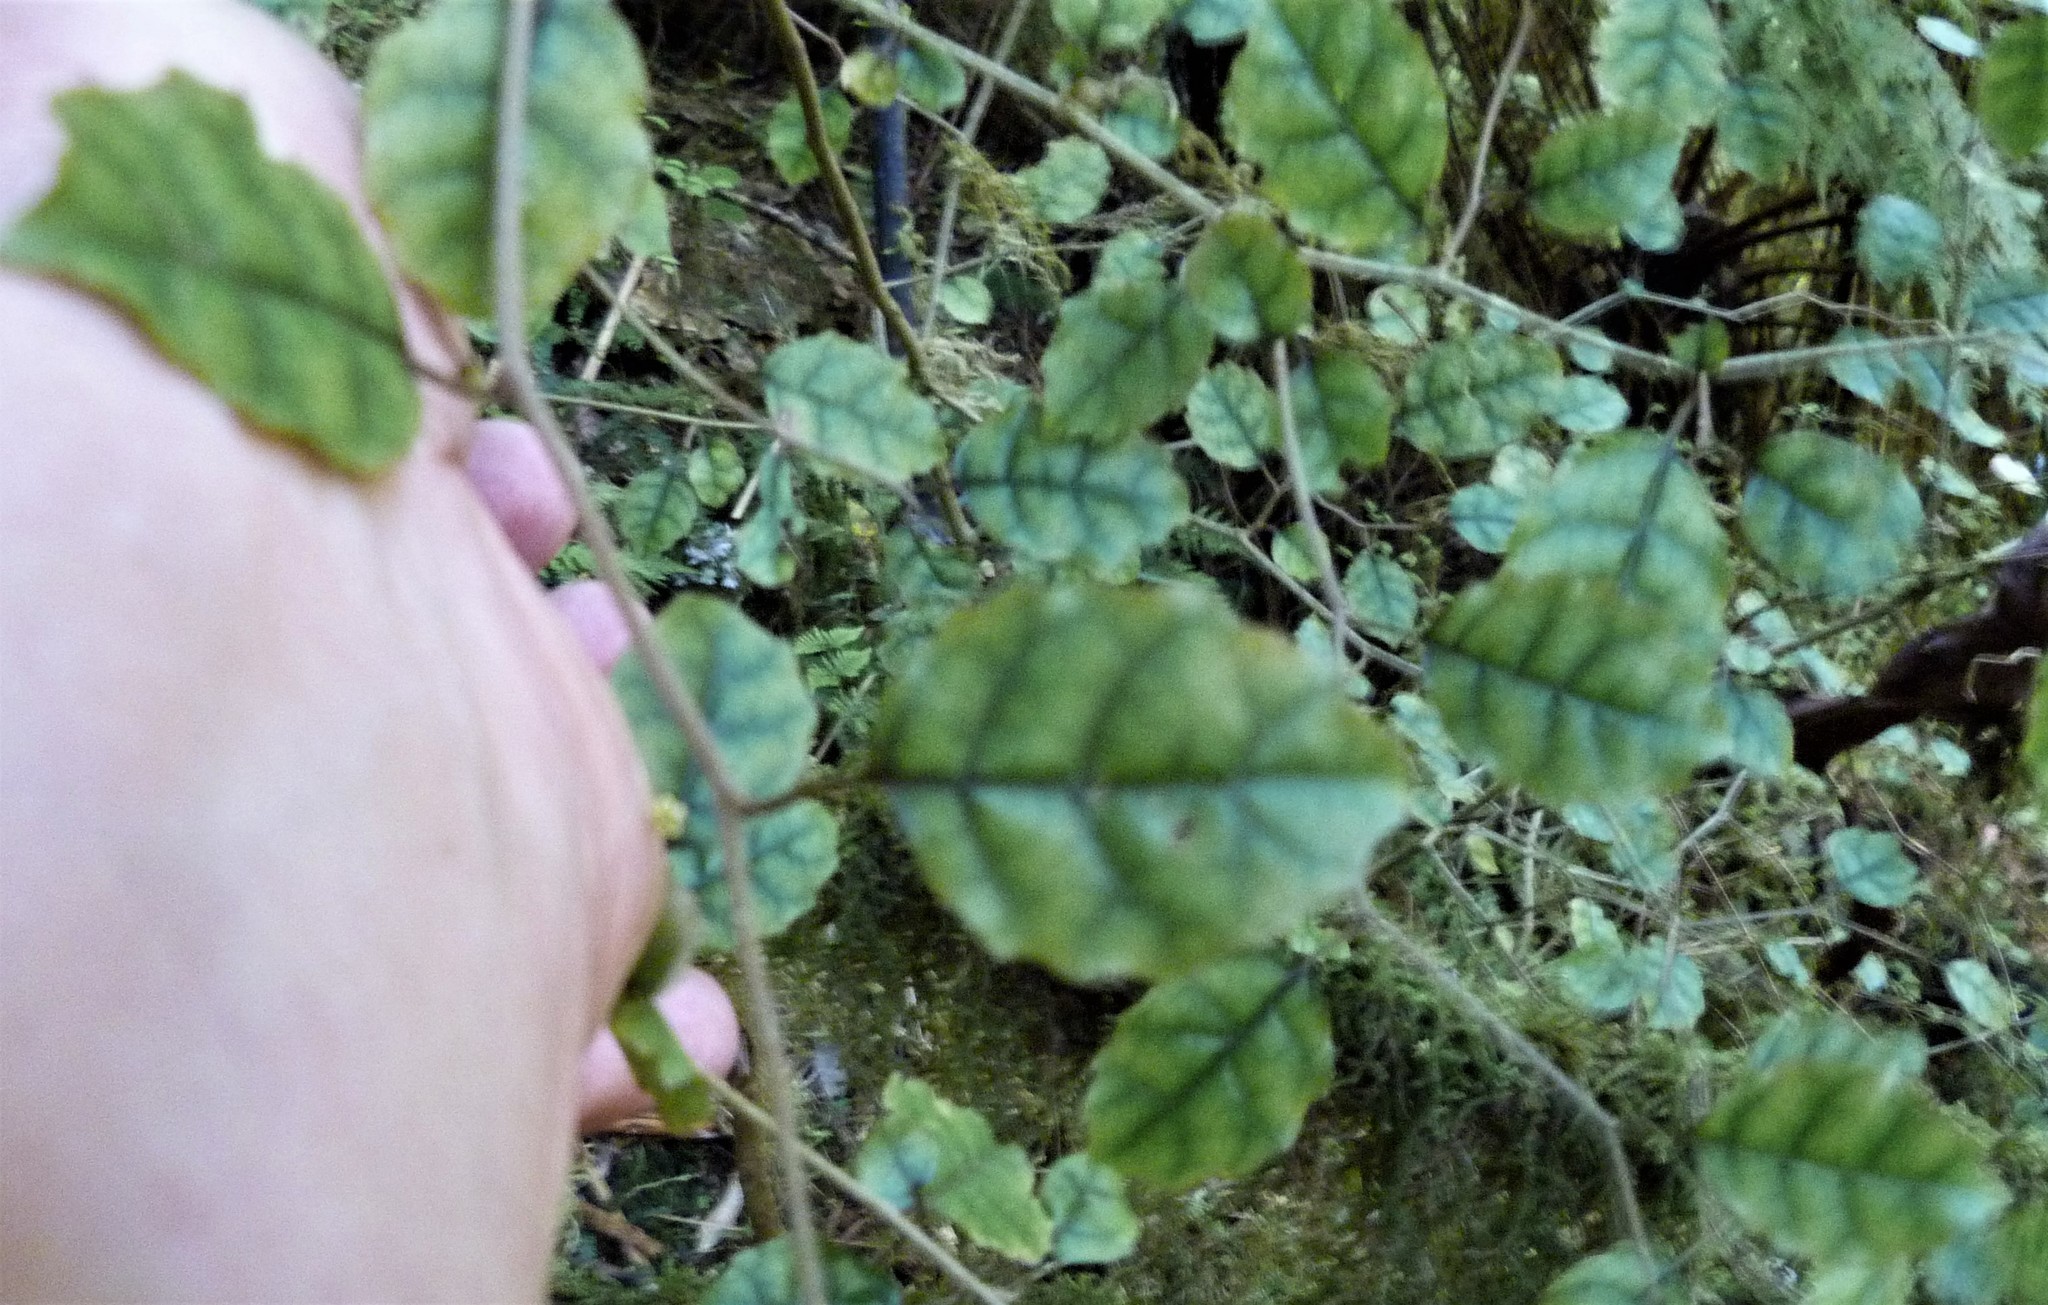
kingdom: Plantae
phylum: Tracheophyta
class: Magnoliopsida
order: Asterales
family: Rousseaceae
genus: Carpodetus
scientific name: Carpodetus serratus
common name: White mapau
